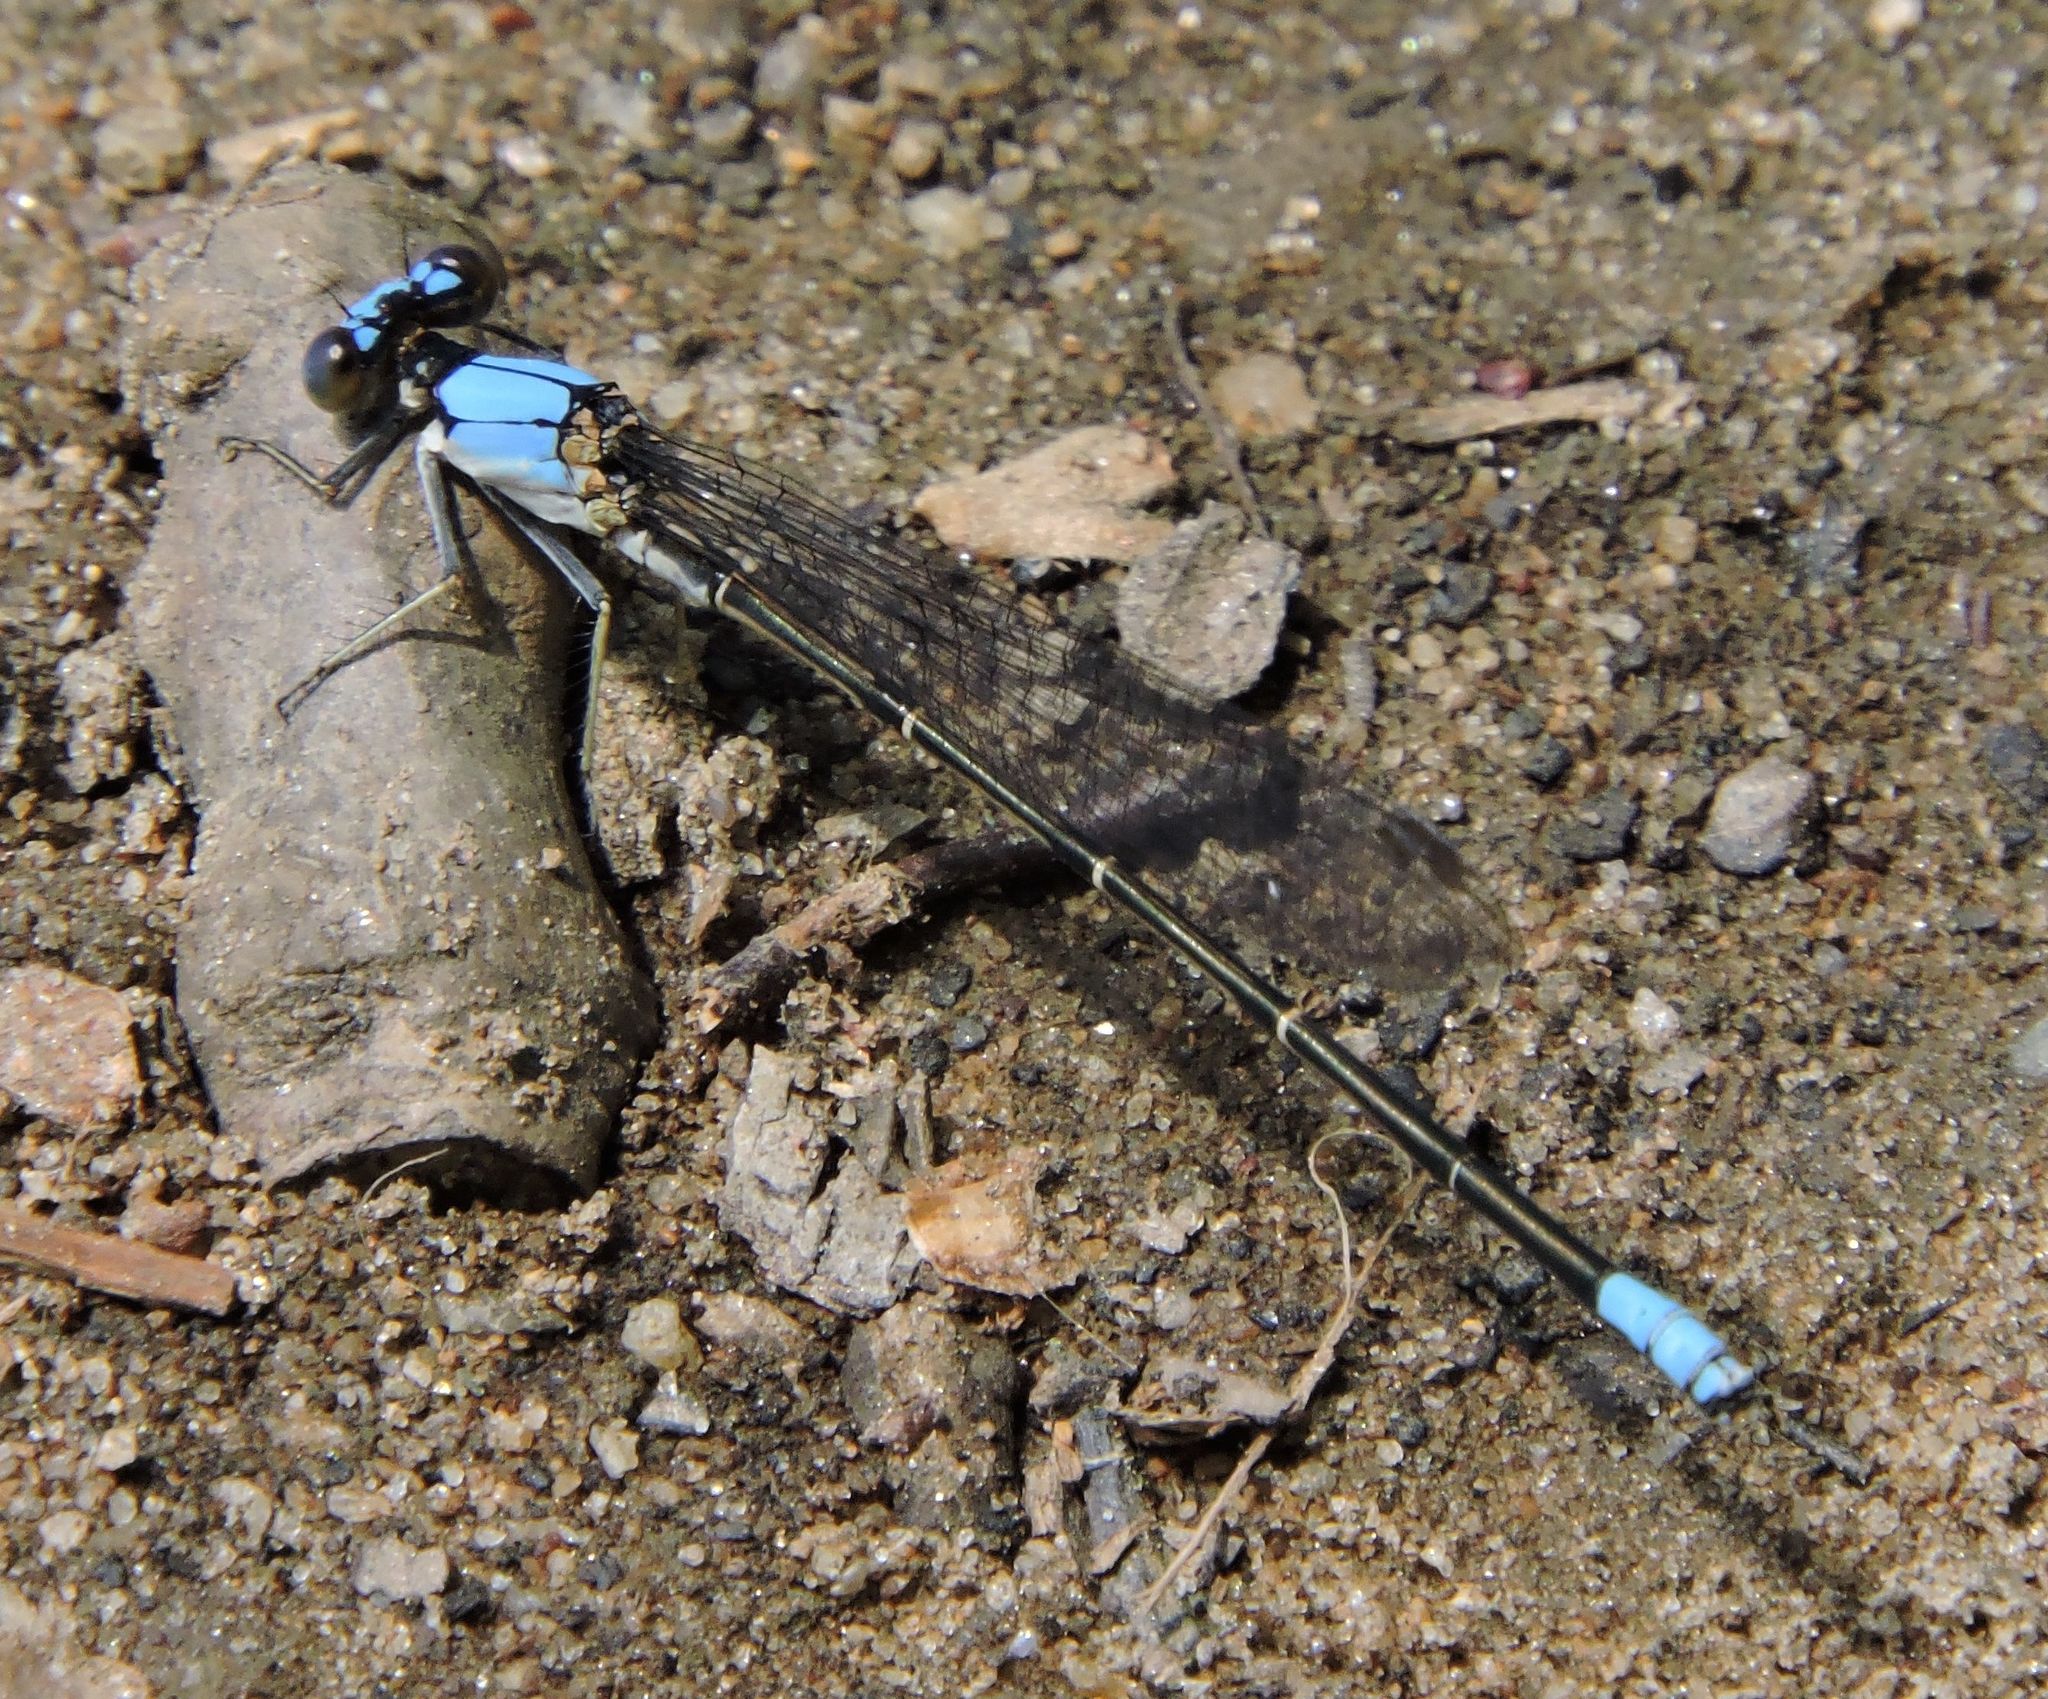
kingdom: Animalia
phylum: Arthropoda
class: Insecta
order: Odonata
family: Coenagrionidae
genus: Argia
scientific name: Argia apicalis
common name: Blue-fronted dancer
